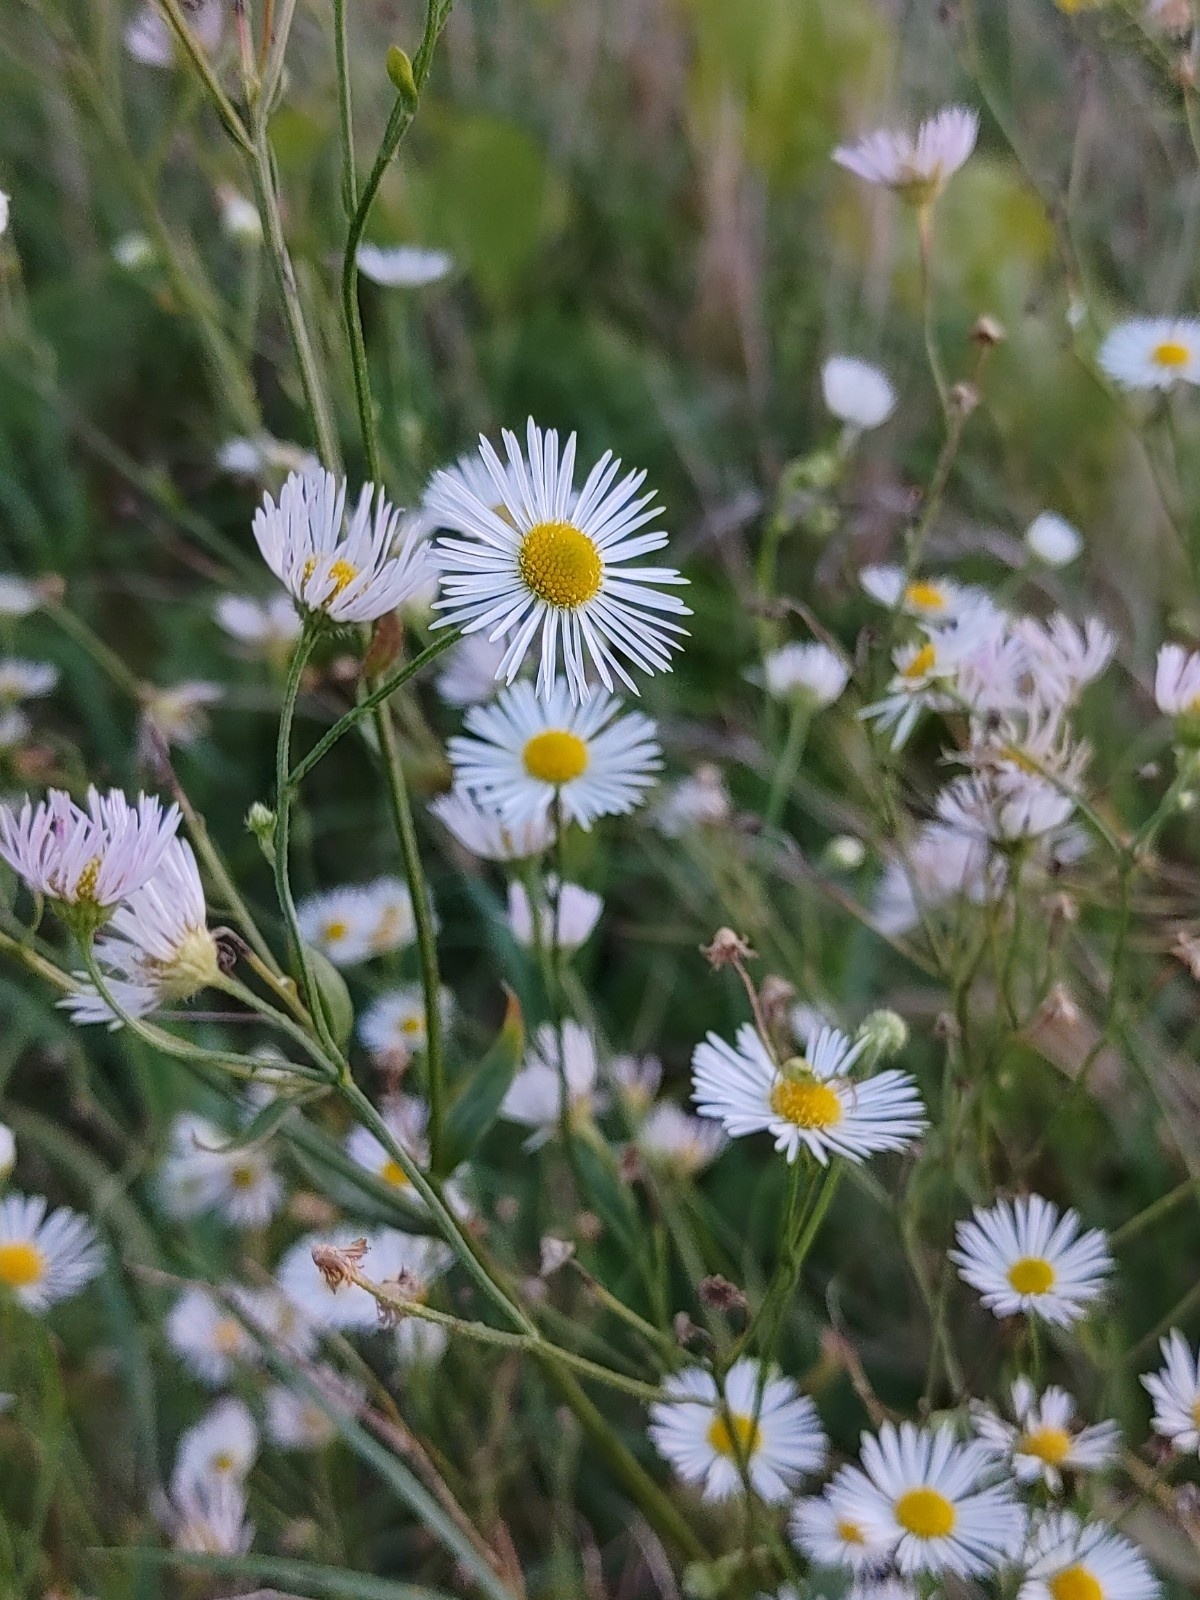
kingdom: Plantae
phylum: Tracheophyta
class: Magnoliopsida
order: Asterales
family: Asteraceae
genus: Erigeron
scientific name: Erigeron annuus
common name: Tall fleabane
